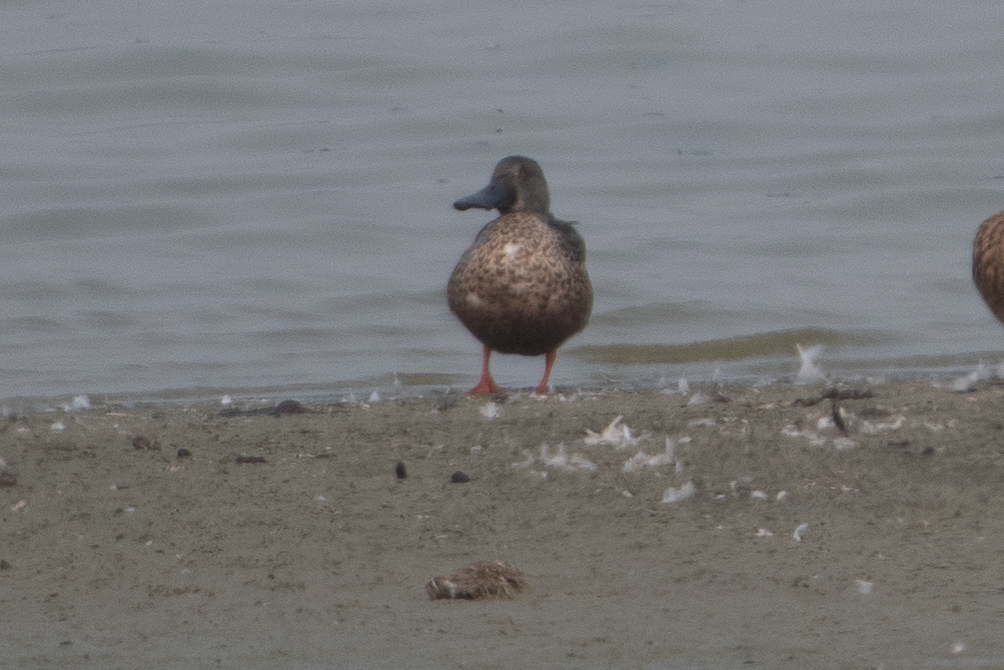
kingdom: Animalia
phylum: Chordata
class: Aves
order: Anseriformes
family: Anatidae
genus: Spatula
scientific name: Spatula clypeata
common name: Northern shoveler
